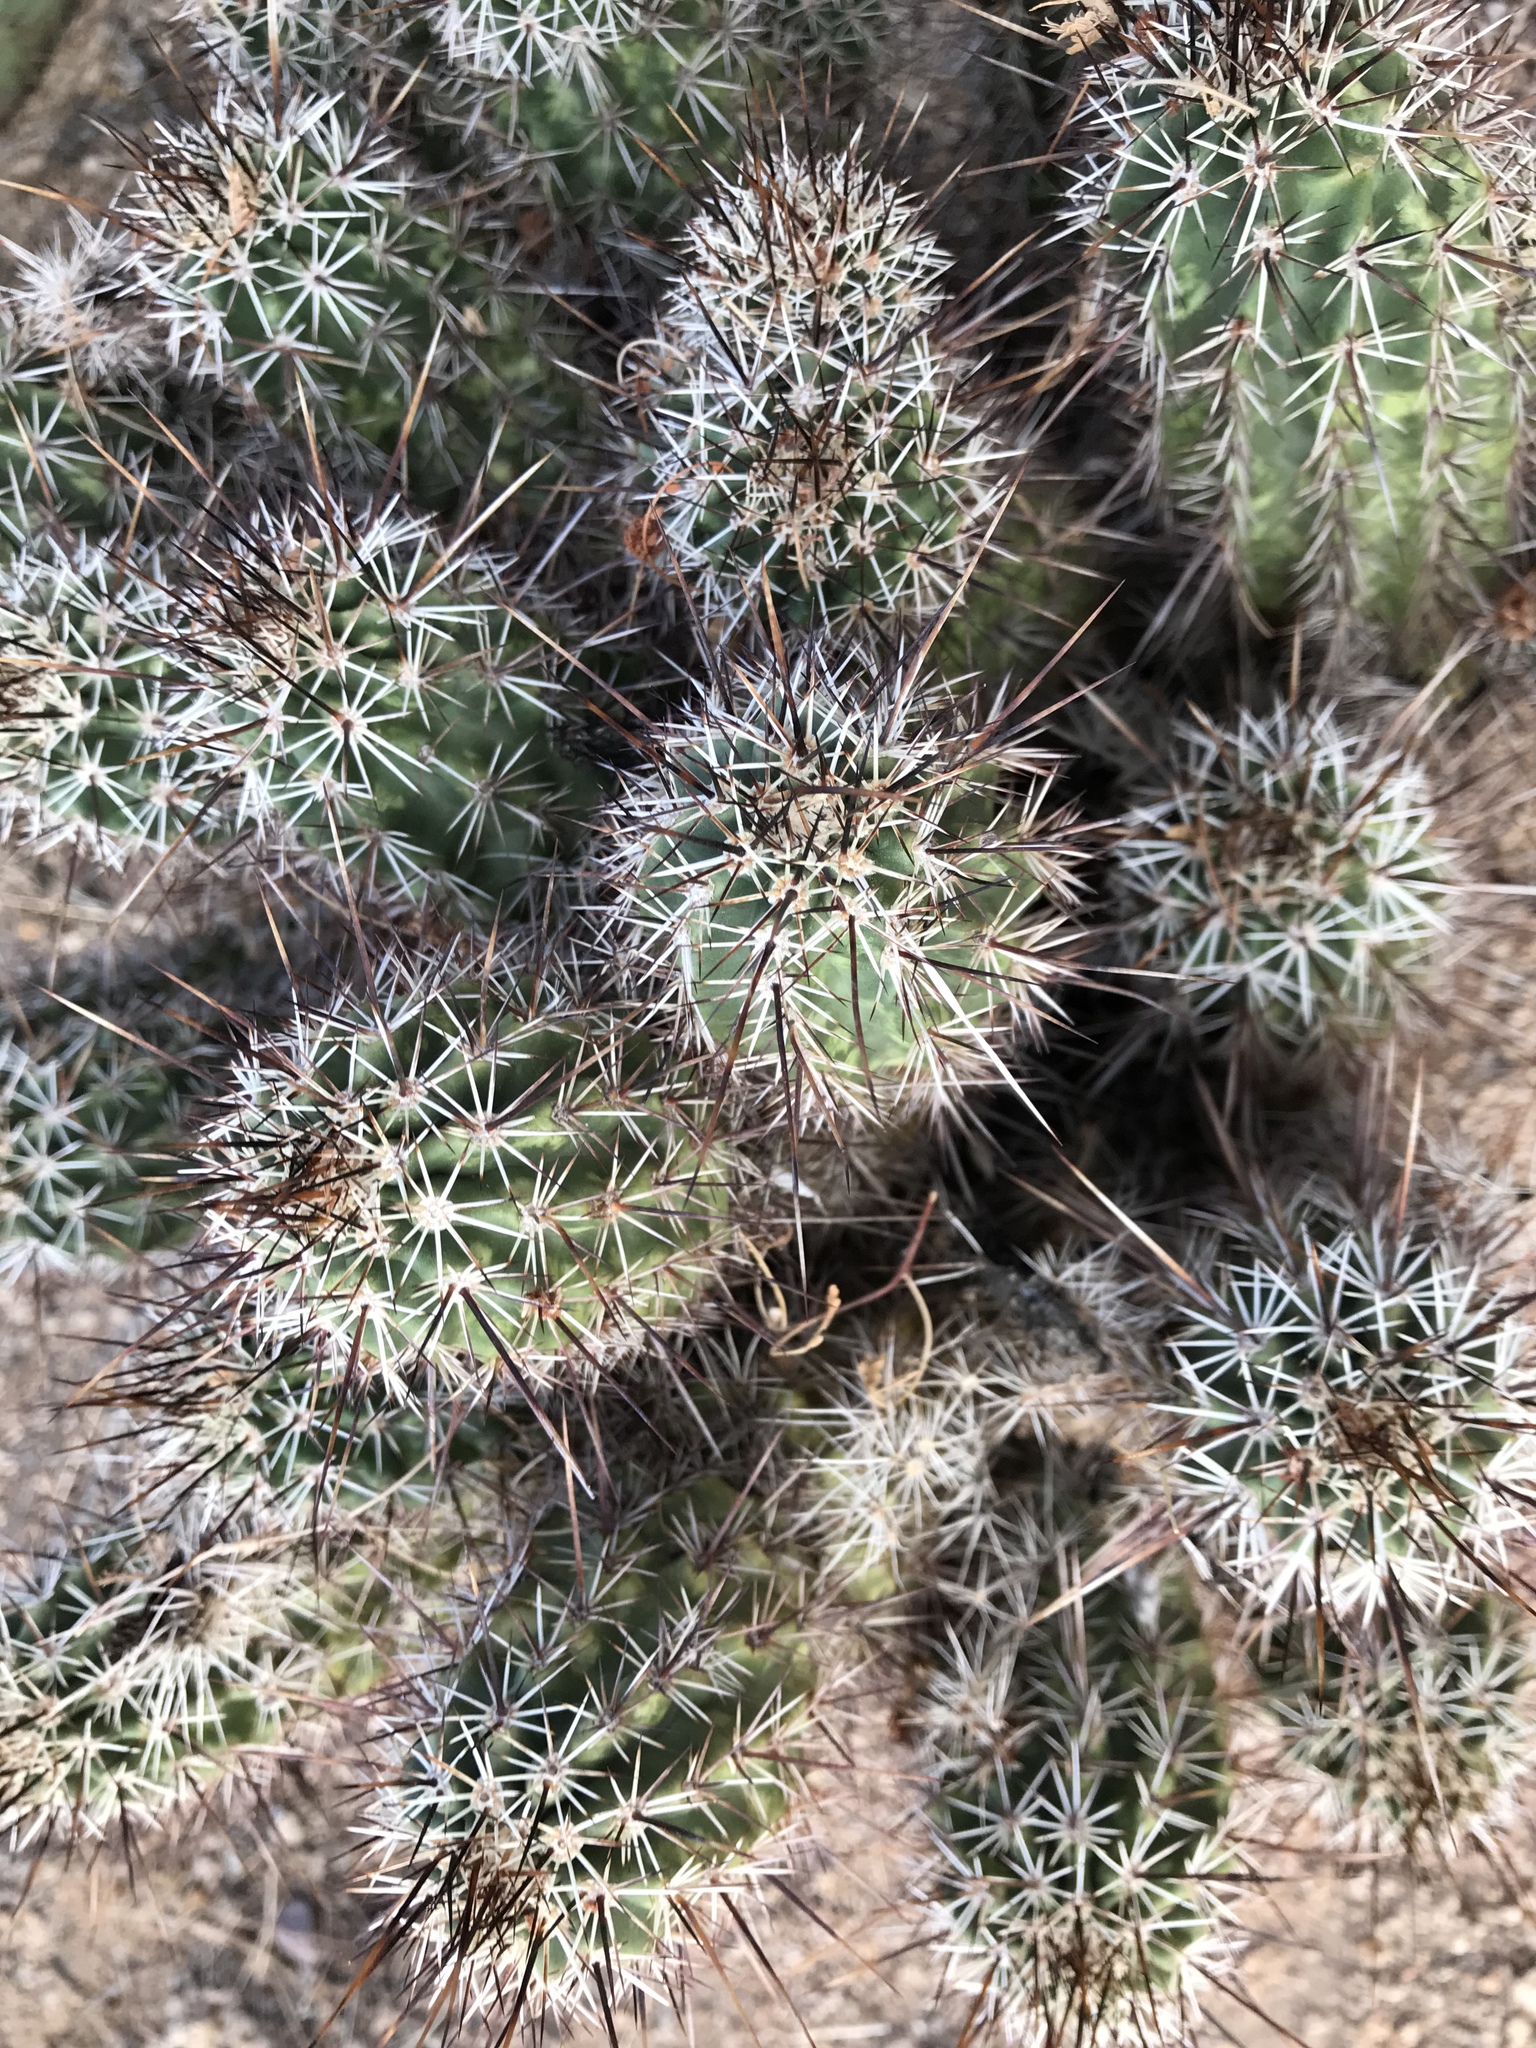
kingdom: Plantae
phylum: Tracheophyta
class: Magnoliopsida
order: Caryophyllales
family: Cactaceae
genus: Echinocereus
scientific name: Echinocereus fasciculatus
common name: Bundle hedgehog
